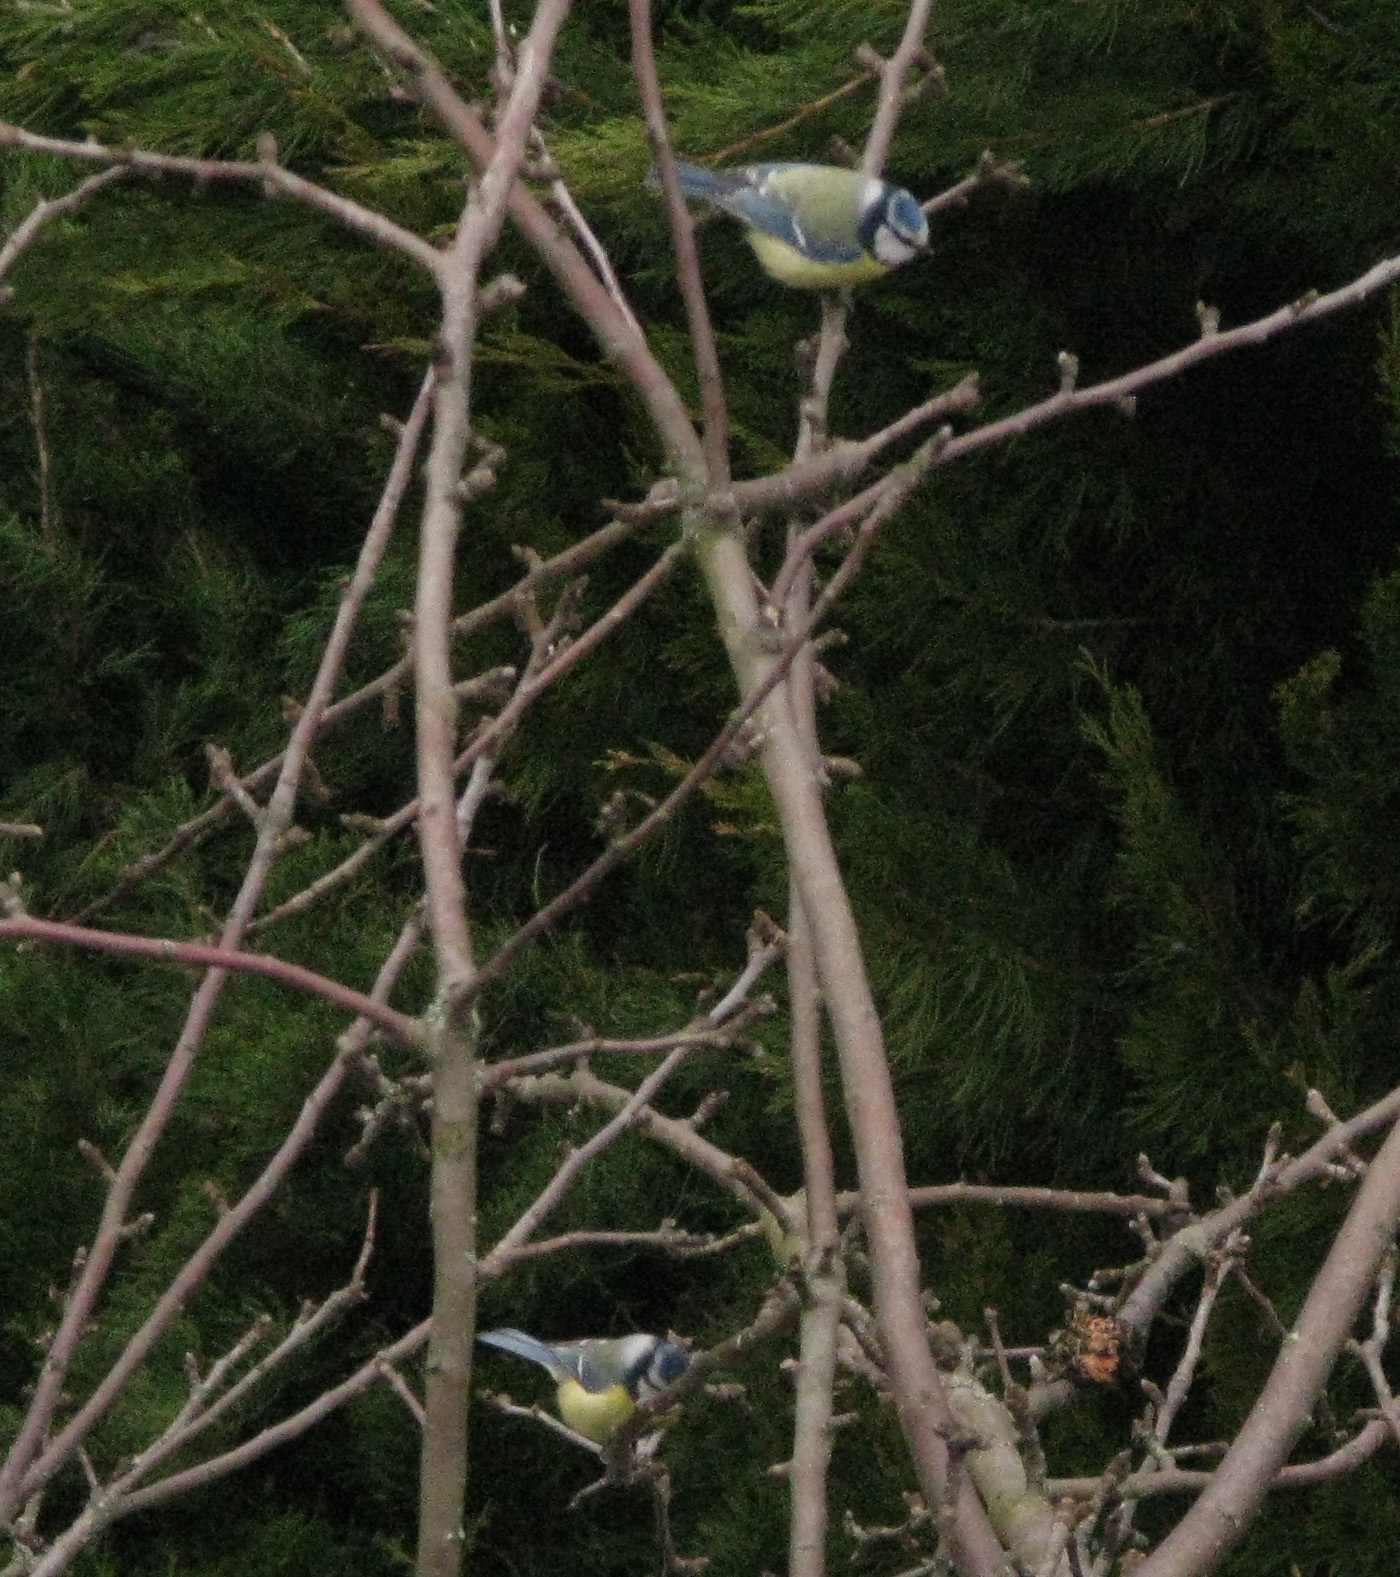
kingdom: Animalia
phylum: Chordata
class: Aves
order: Passeriformes
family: Paridae
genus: Cyanistes
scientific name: Cyanistes caeruleus
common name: Eurasian blue tit
